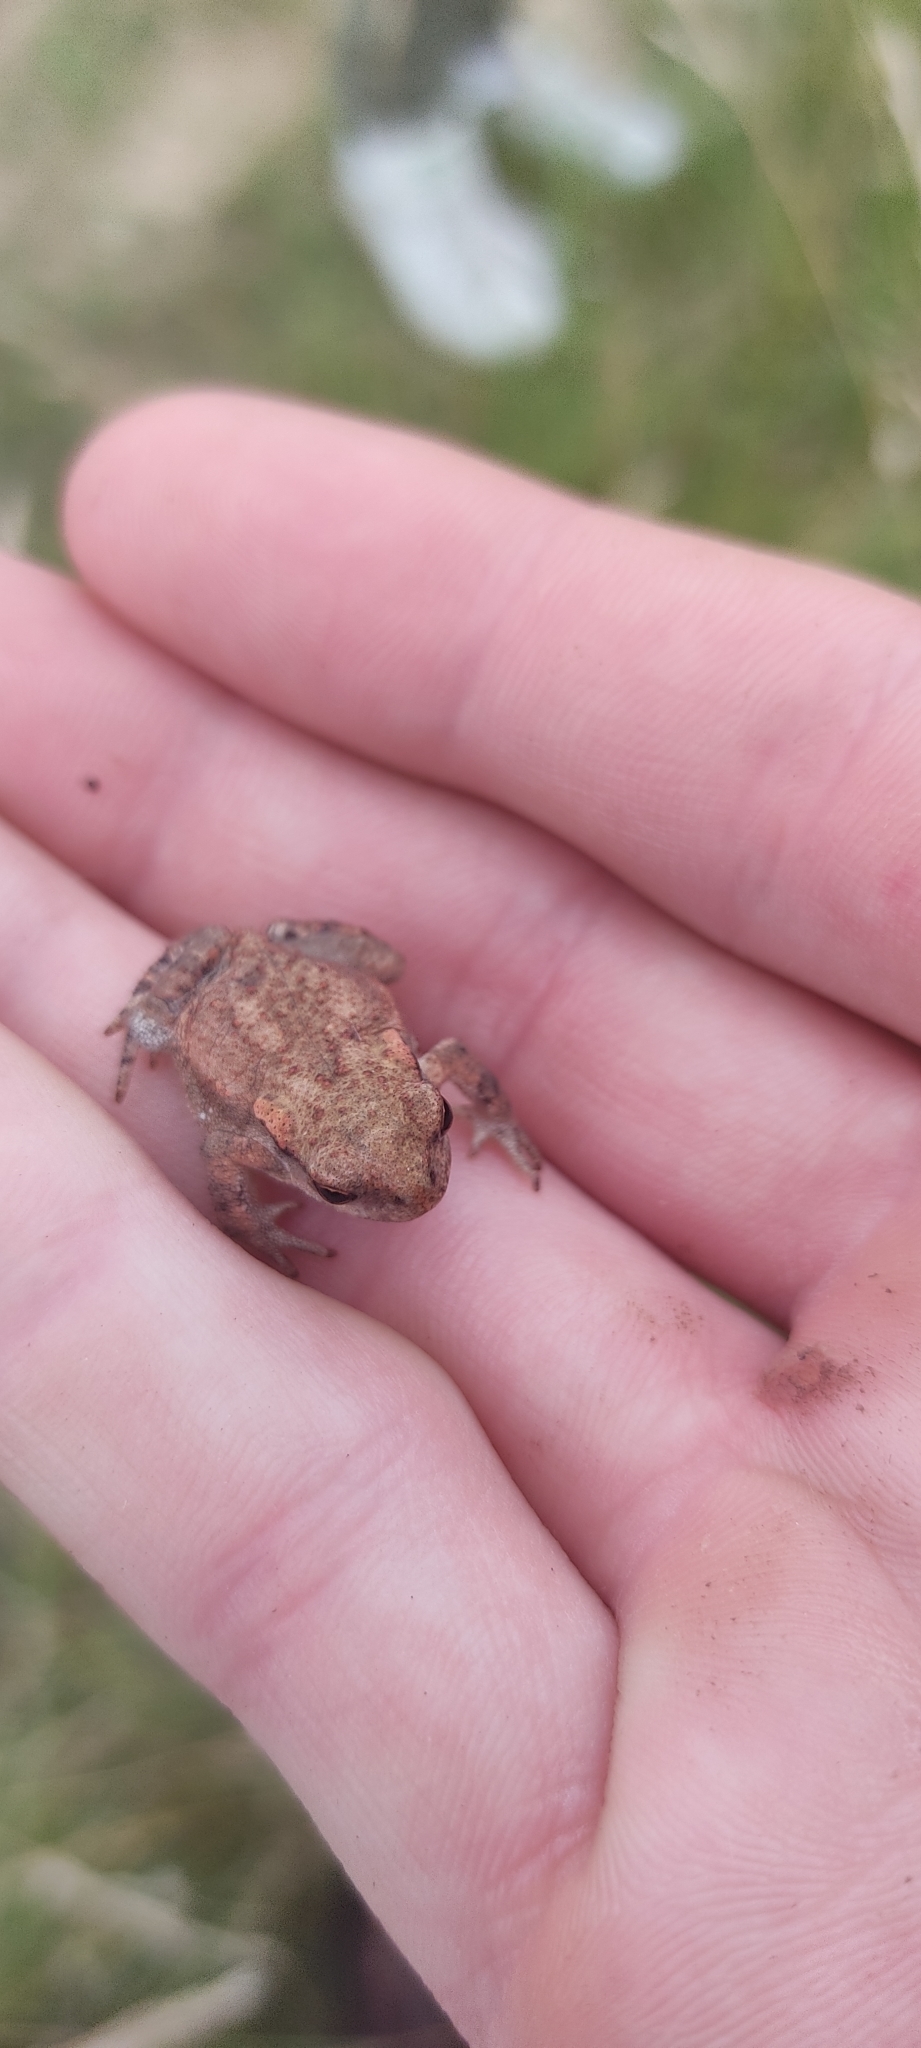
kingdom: Animalia
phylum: Chordata
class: Amphibia
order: Anura
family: Bufonidae
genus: Bufo
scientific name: Bufo spinosus
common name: Western common toad
